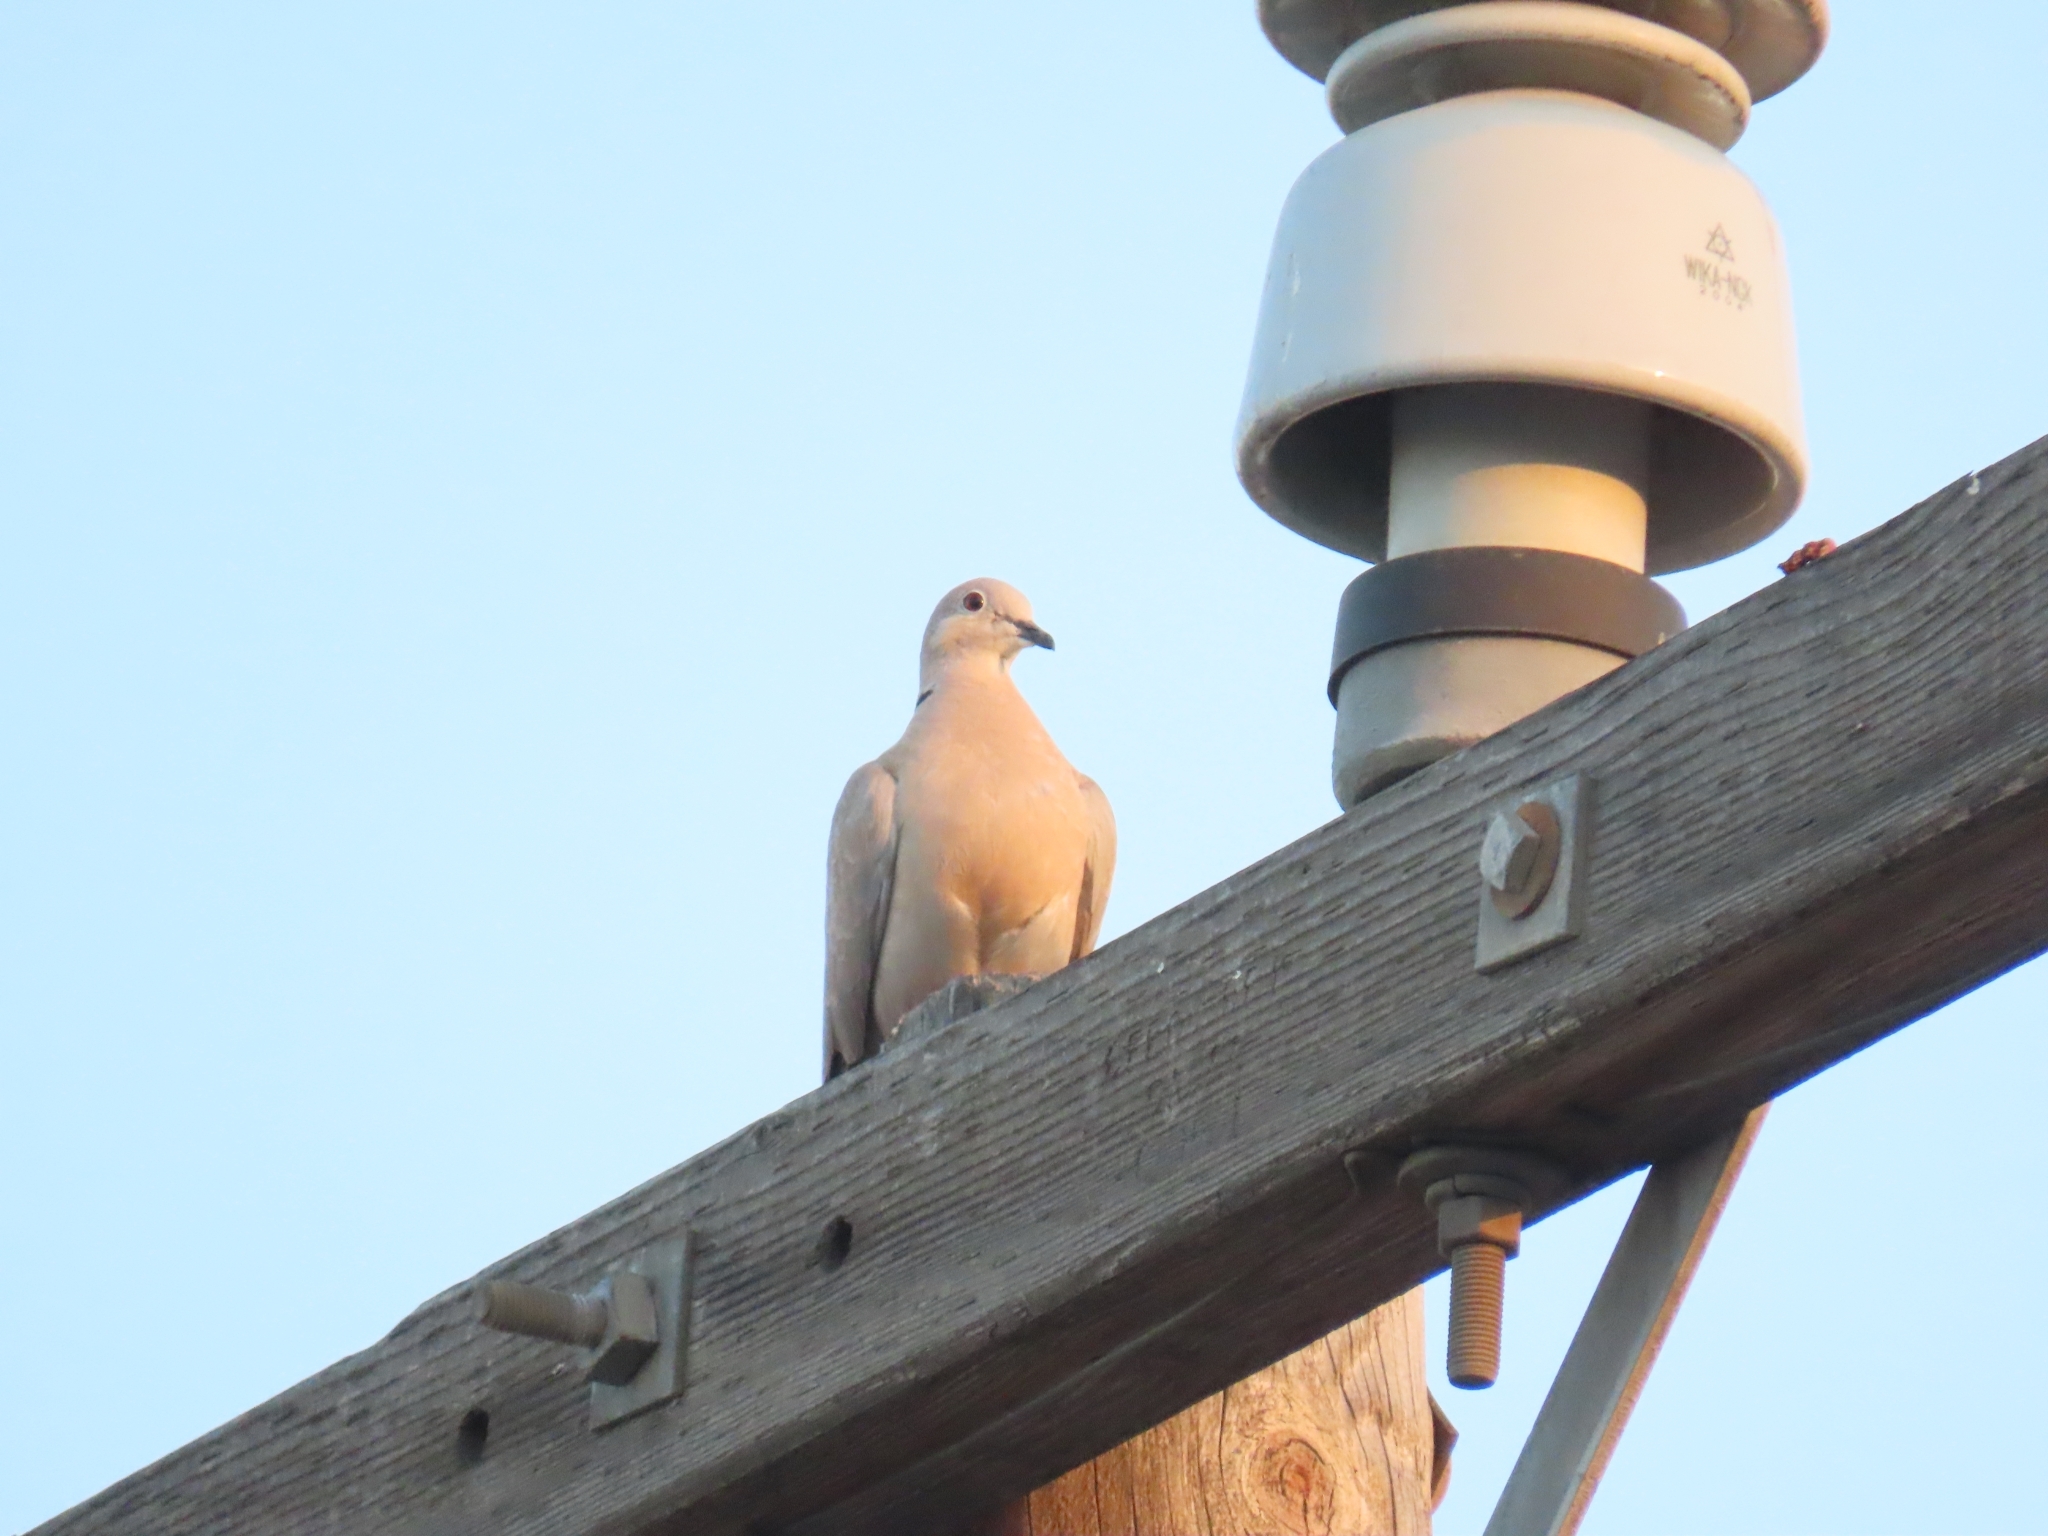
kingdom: Animalia
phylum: Chordata
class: Aves
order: Columbiformes
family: Columbidae
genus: Streptopelia
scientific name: Streptopelia decaocto
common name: Eurasian collared dove
